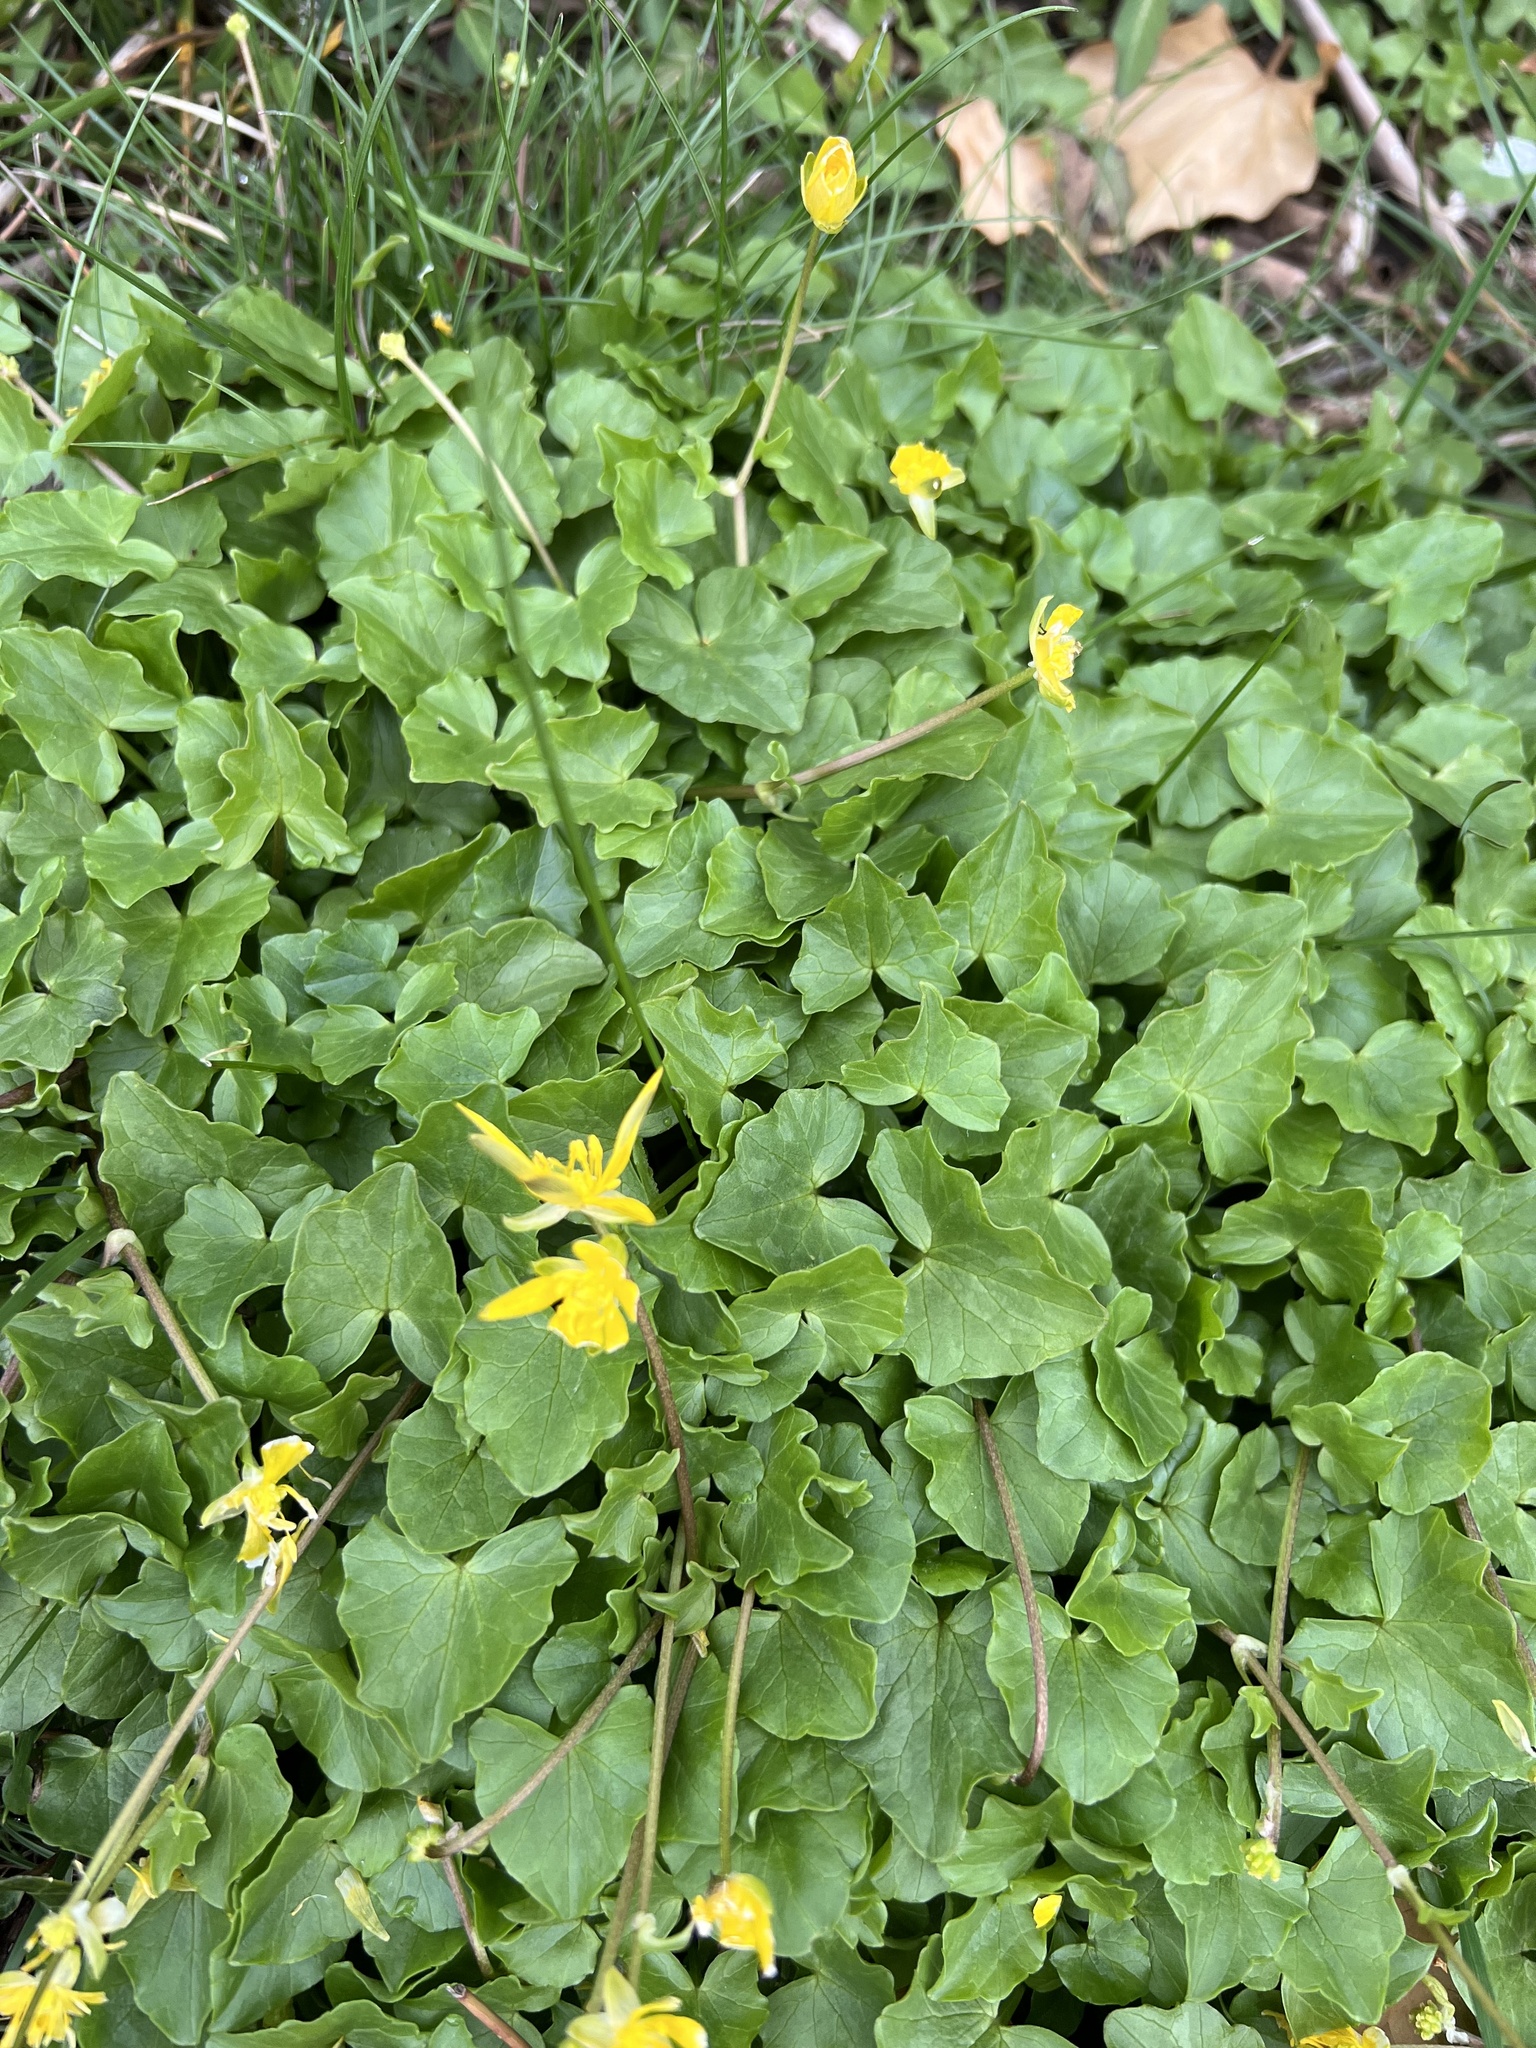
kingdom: Plantae
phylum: Tracheophyta
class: Magnoliopsida
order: Ranunculales
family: Ranunculaceae
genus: Ficaria
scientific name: Ficaria verna
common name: Lesser celandine
